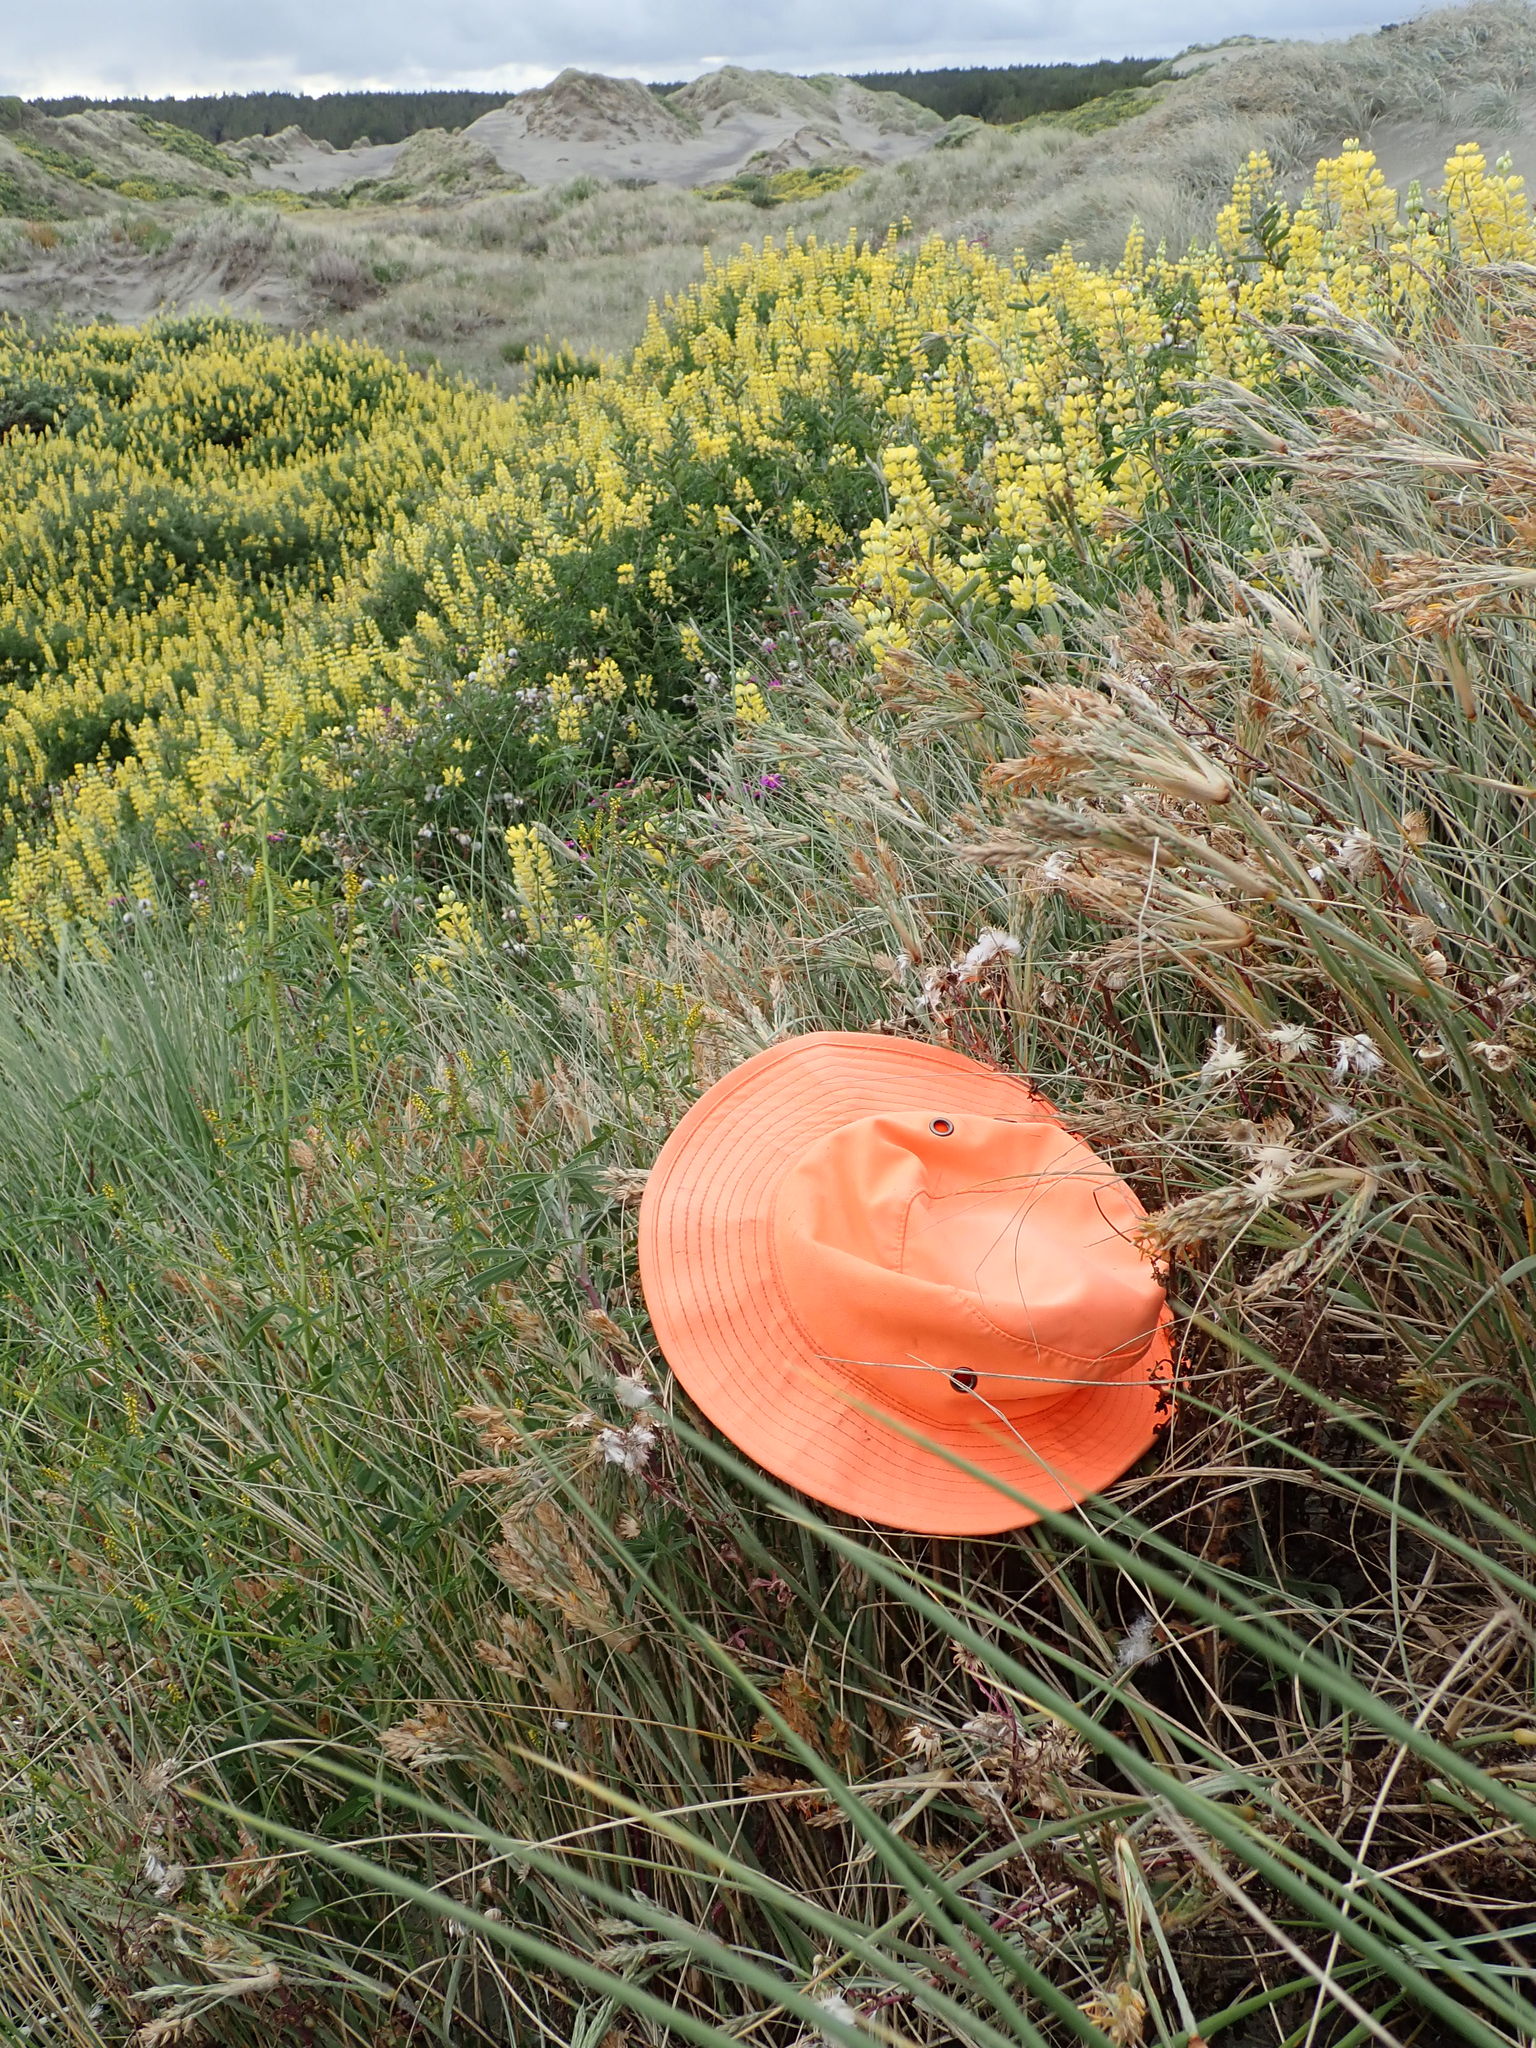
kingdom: Animalia
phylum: Arthropoda
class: Arachnida
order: Araneae
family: Theridiidae
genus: Latrodectus
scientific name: Latrodectus katipo
